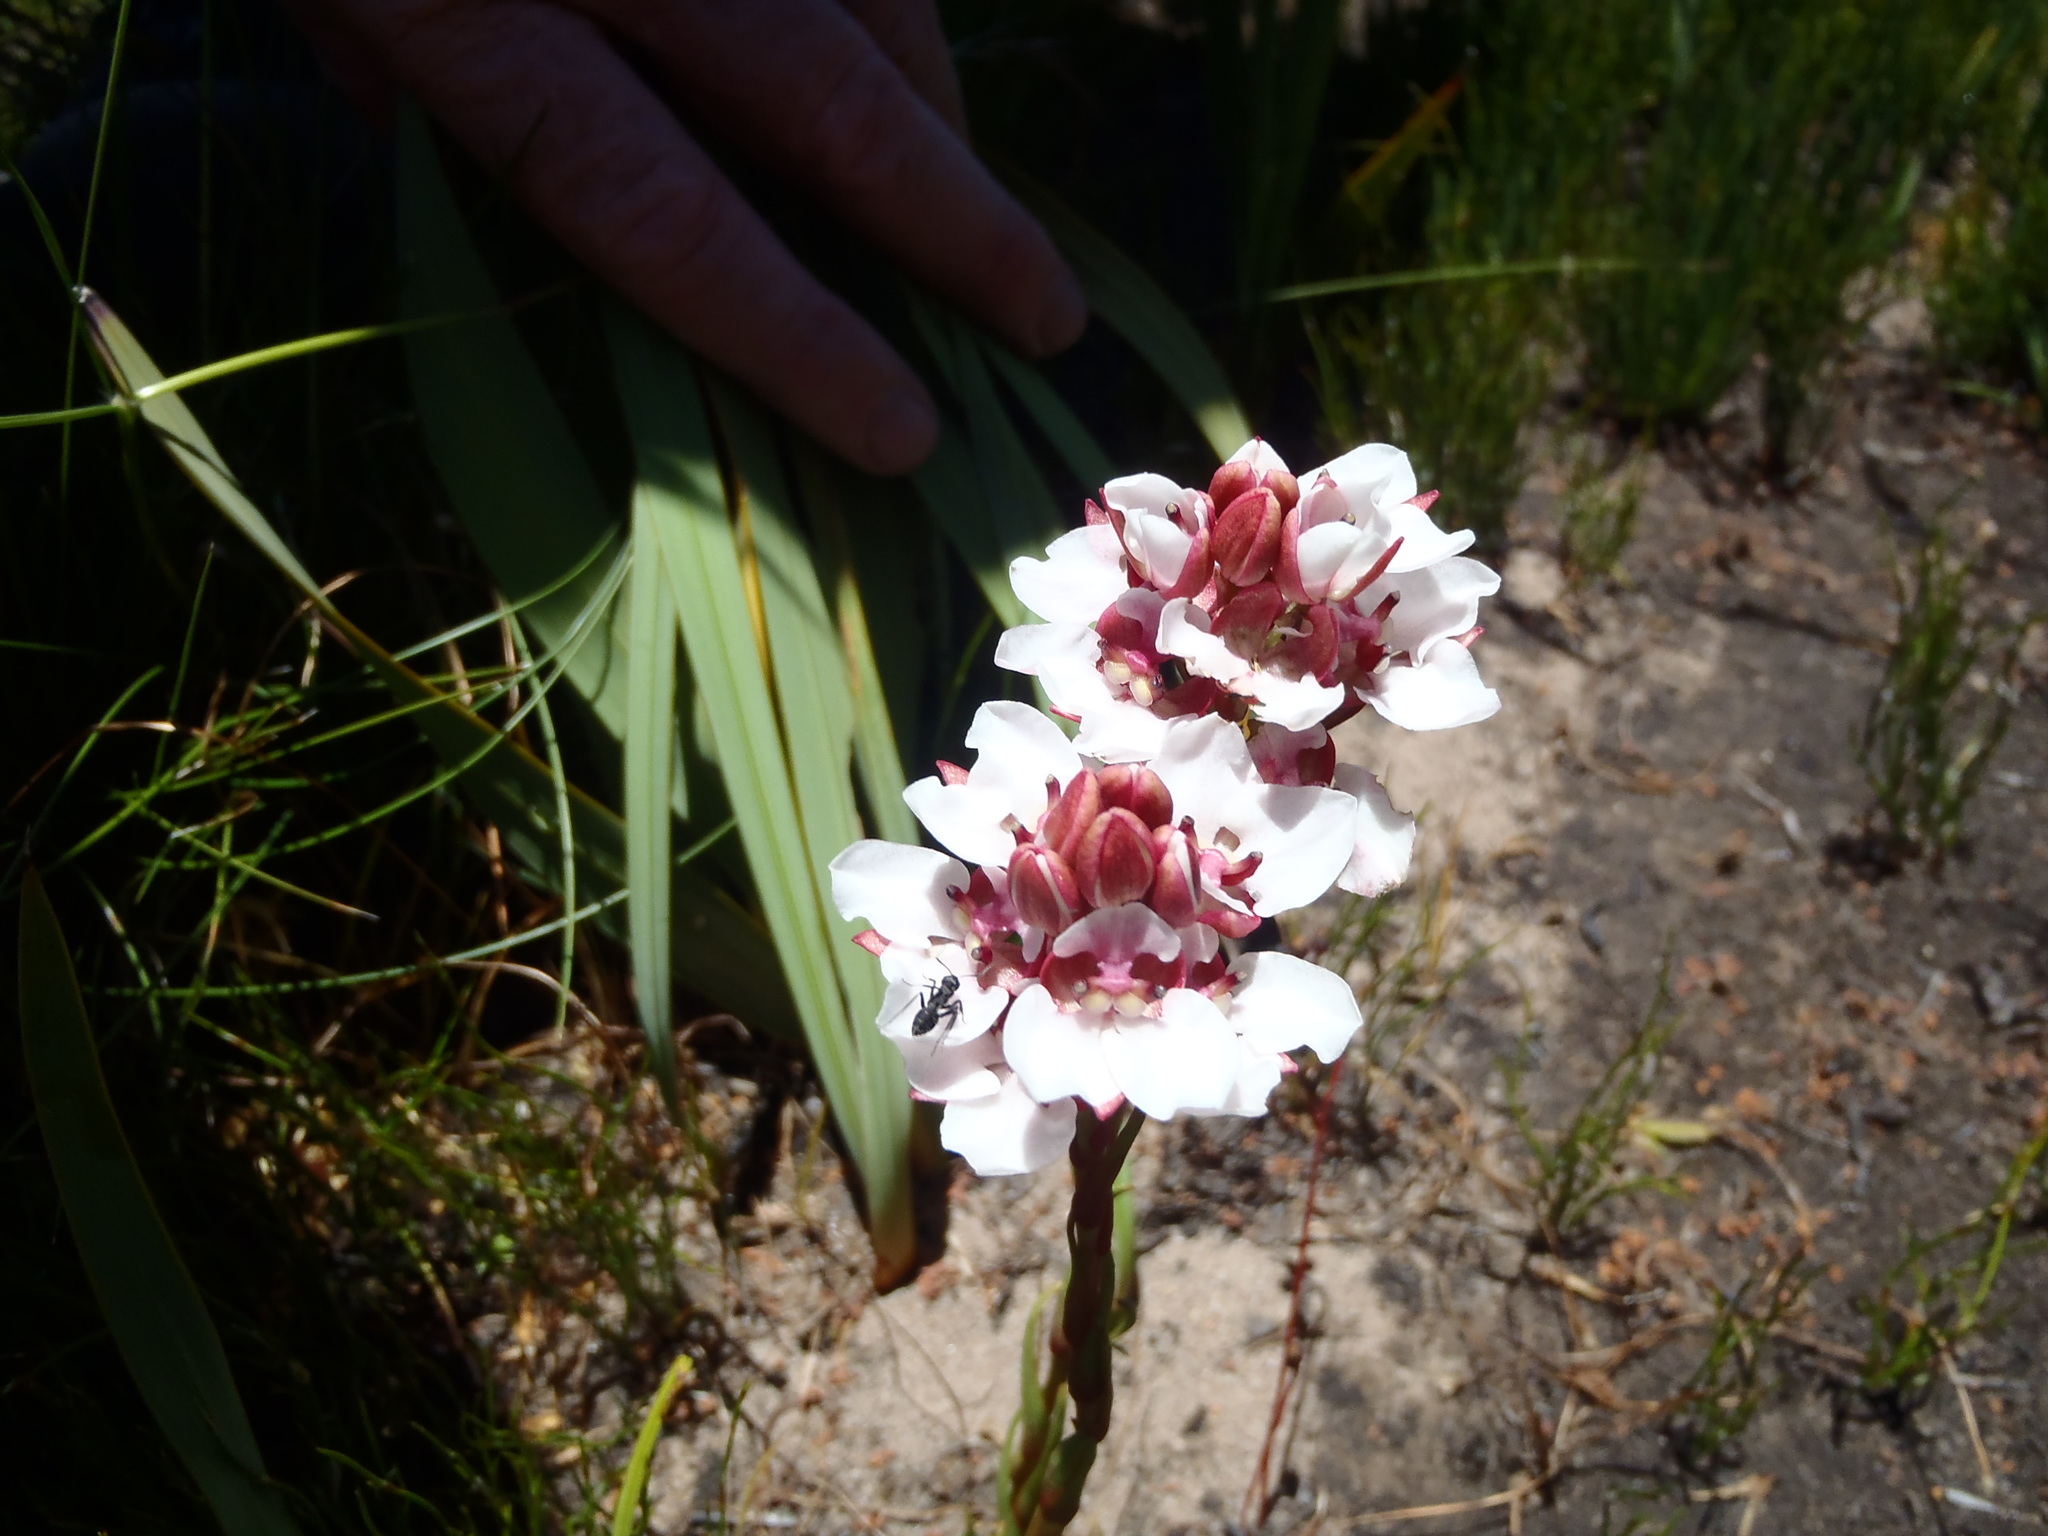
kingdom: Plantae
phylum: Tracheophyta
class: Liliopsida
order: Asparagales
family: Orchidaceae
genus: Ceratandra
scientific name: Ceratandra globosa
